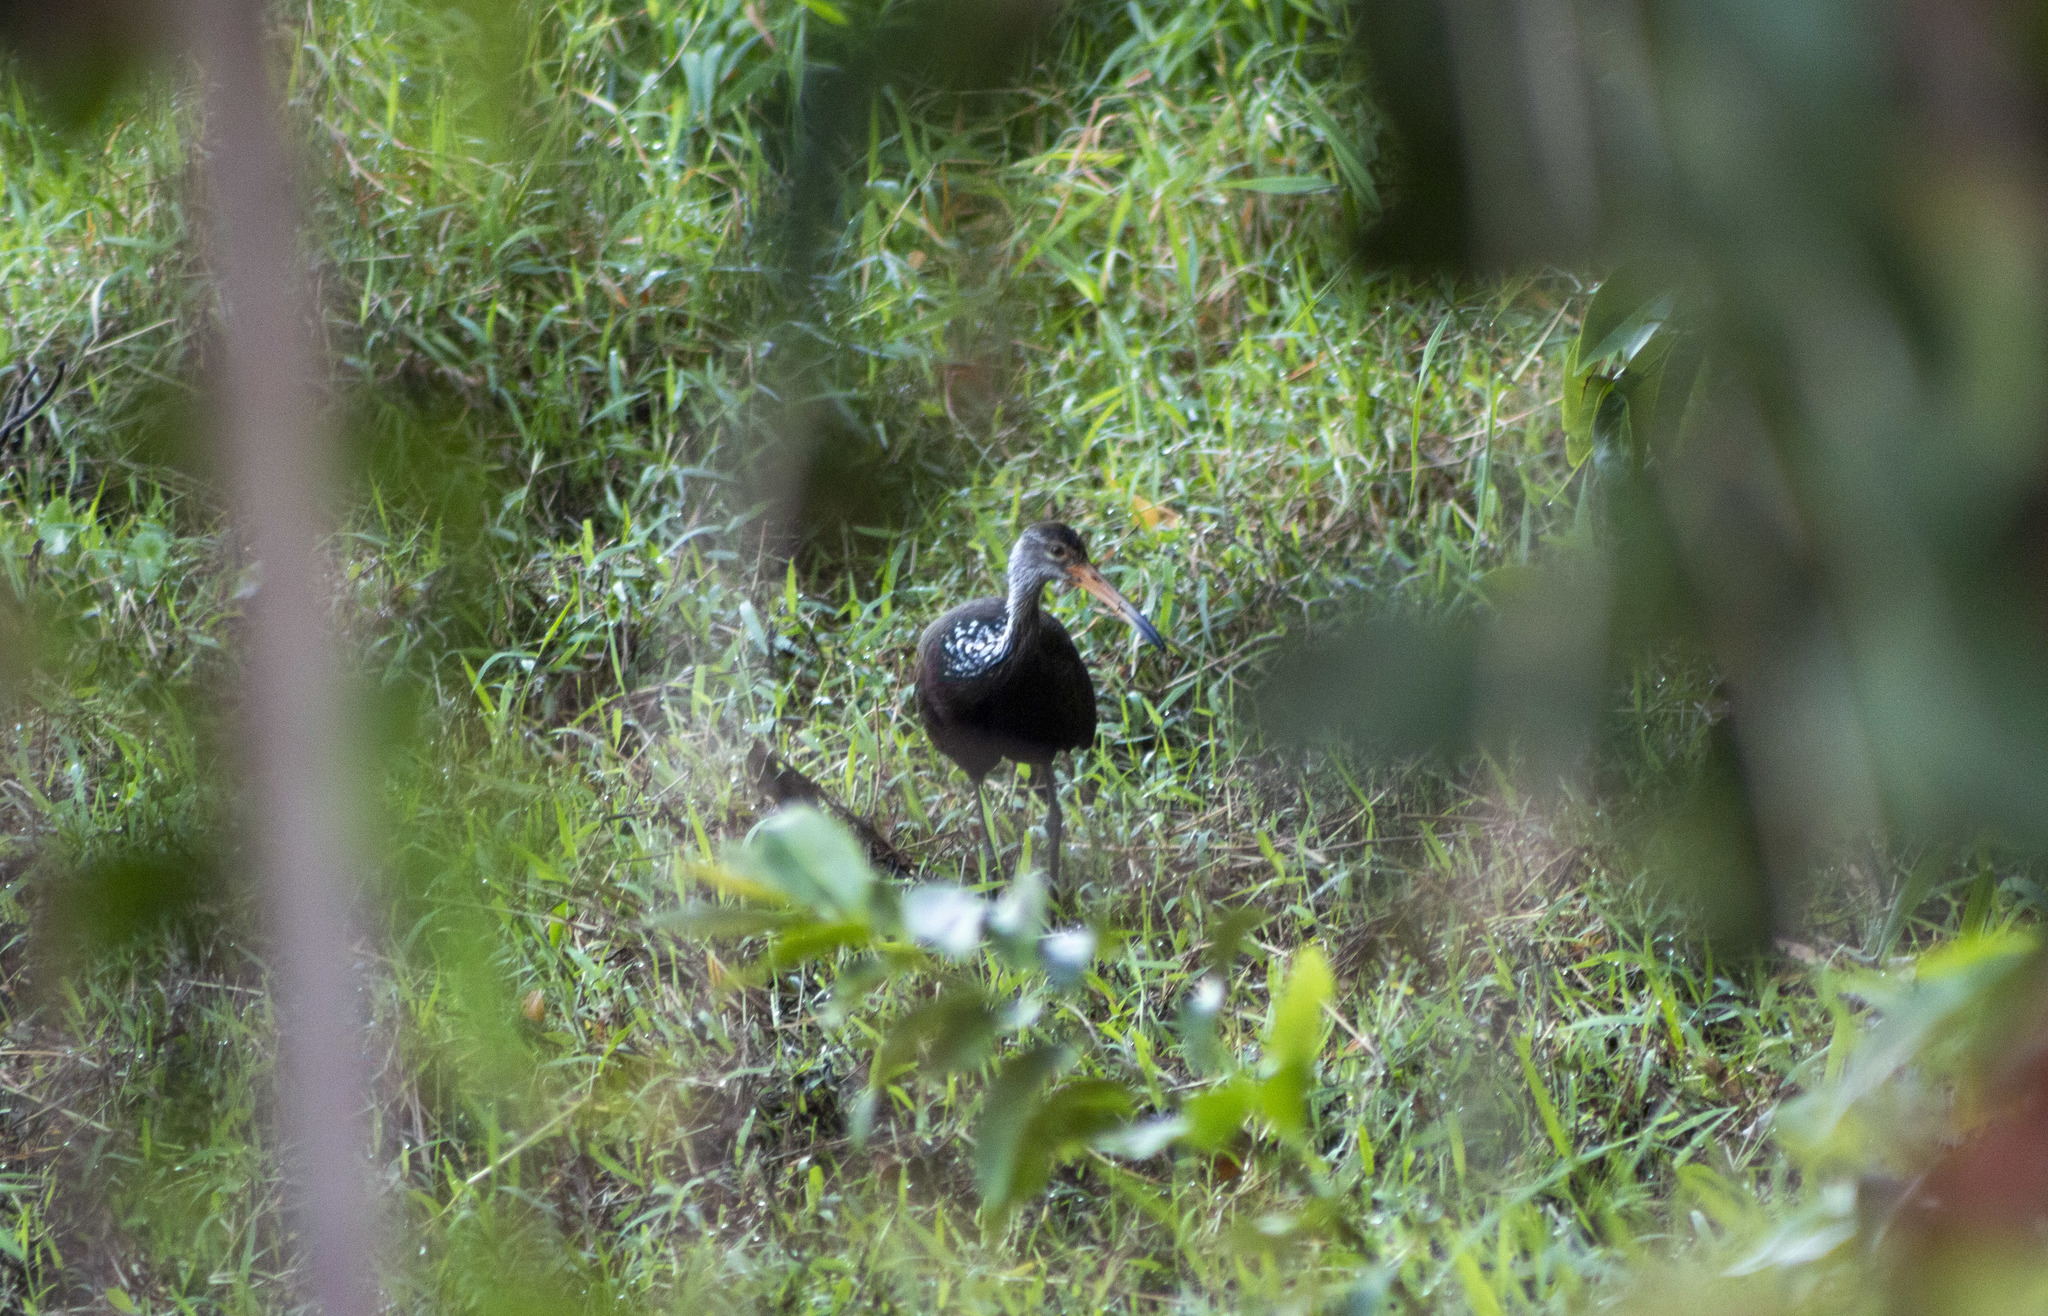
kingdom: Animalia
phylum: Chordata
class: Aves
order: Gruiformes
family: Aramidae
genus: Aramus
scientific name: Aramus guarauna
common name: Limpkin
